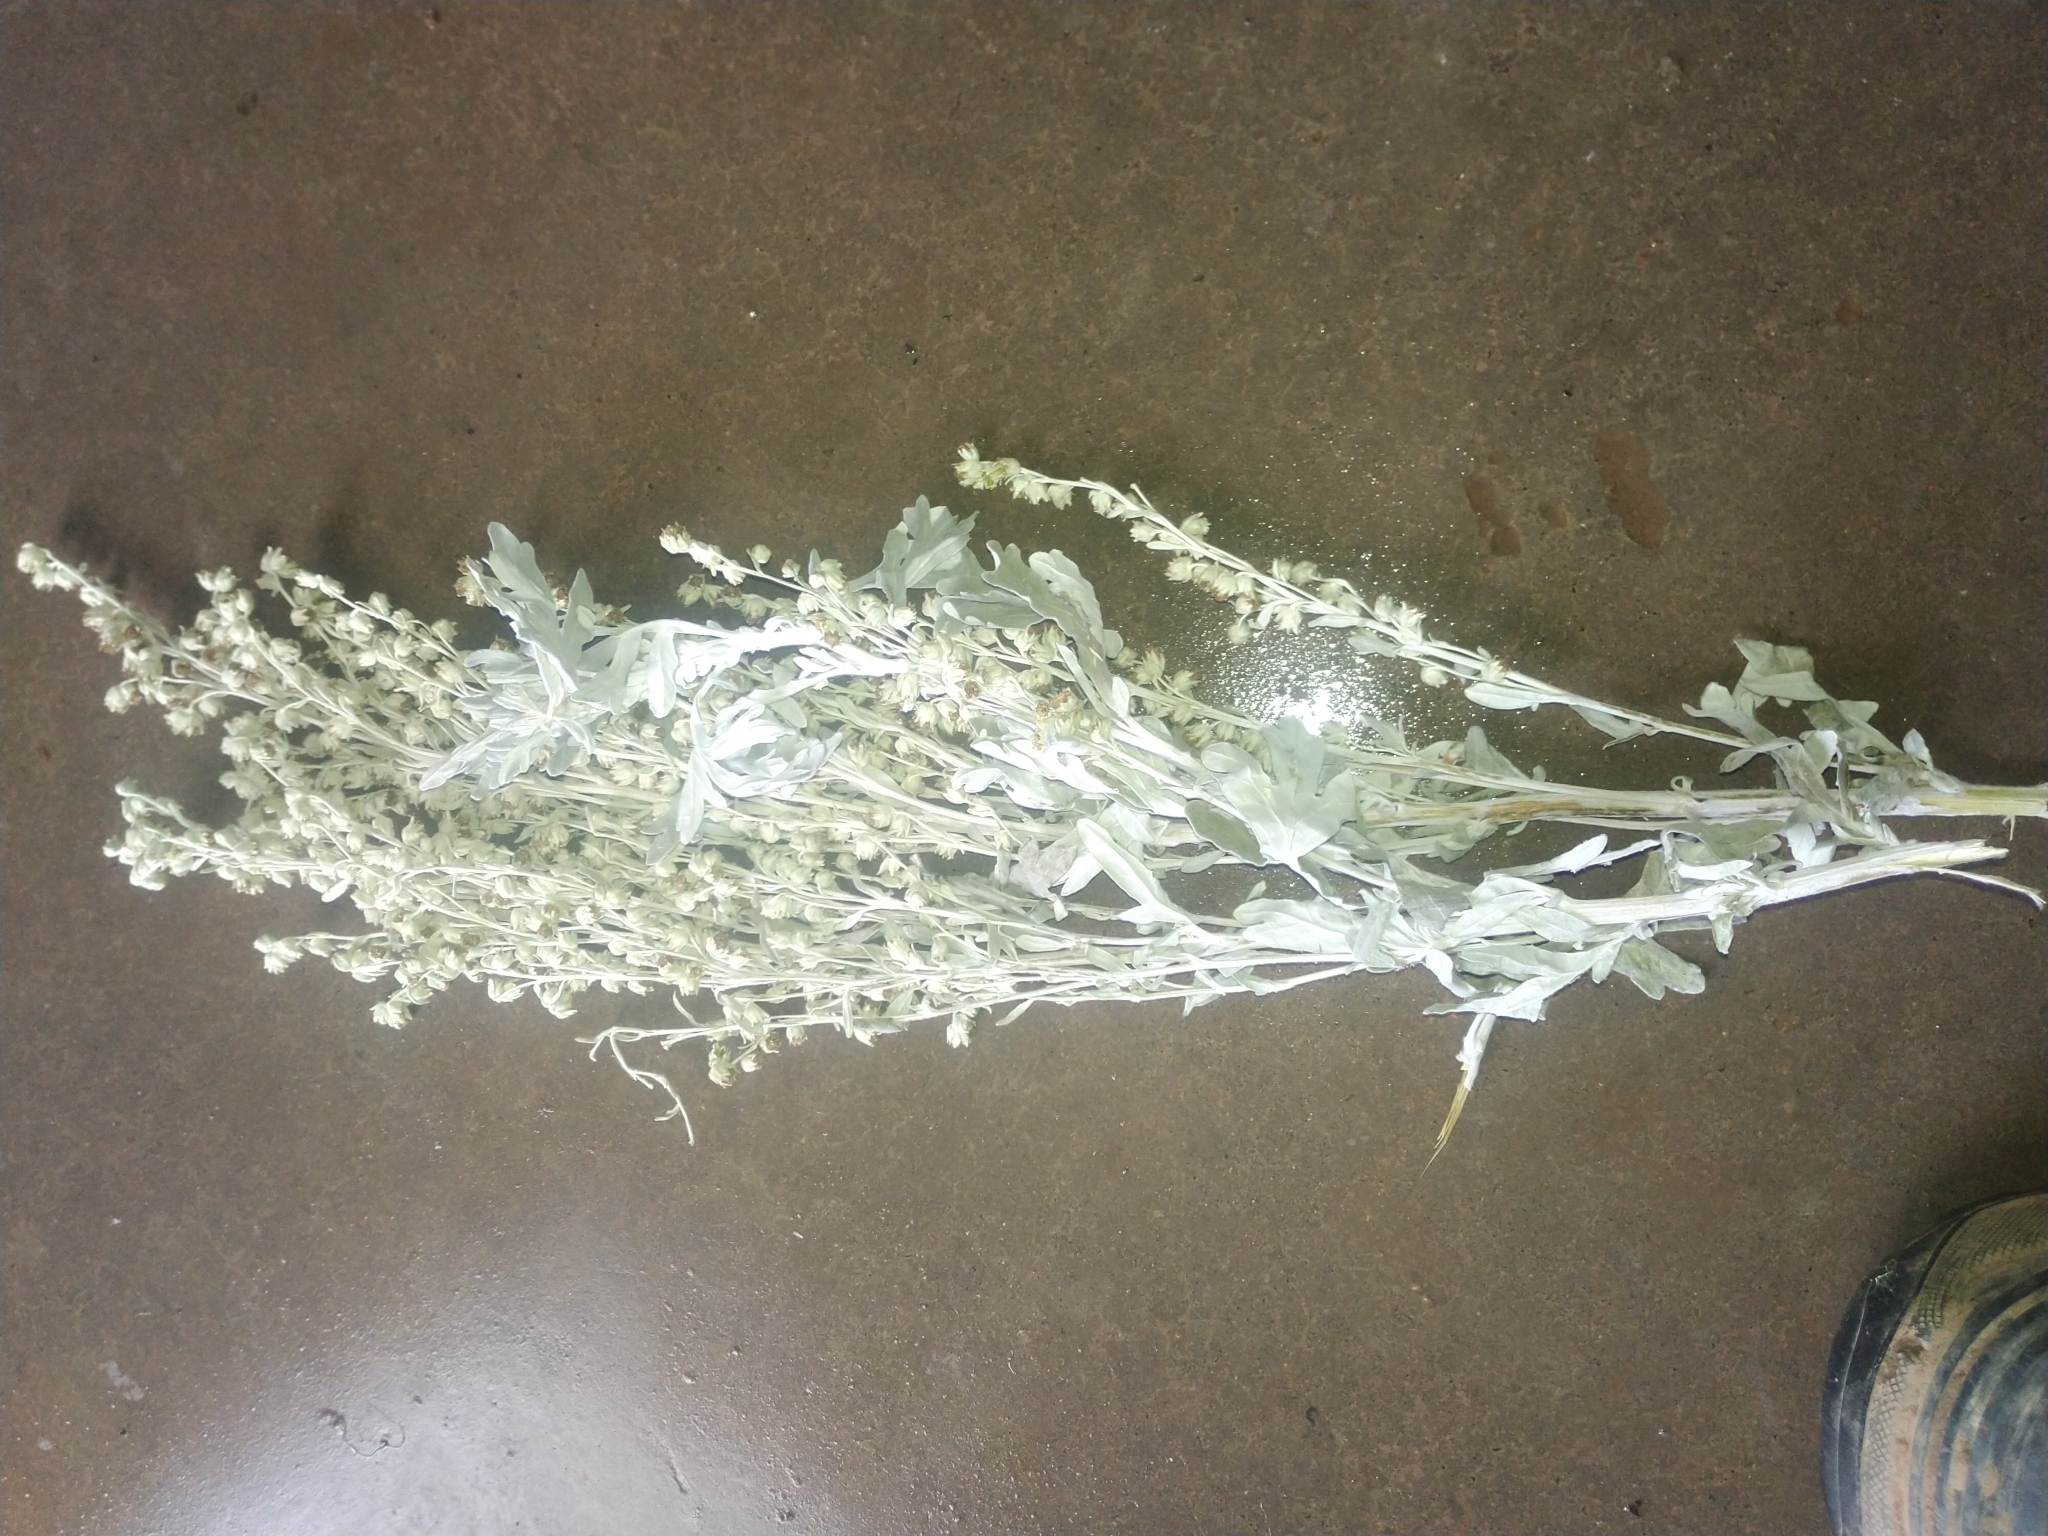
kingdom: Plantae
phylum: Tracheophyta
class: Magnoliopsida
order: Asterales
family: Asteraceae
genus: Artemisia
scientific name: Artemisia stelleriana
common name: Beach wormwood
